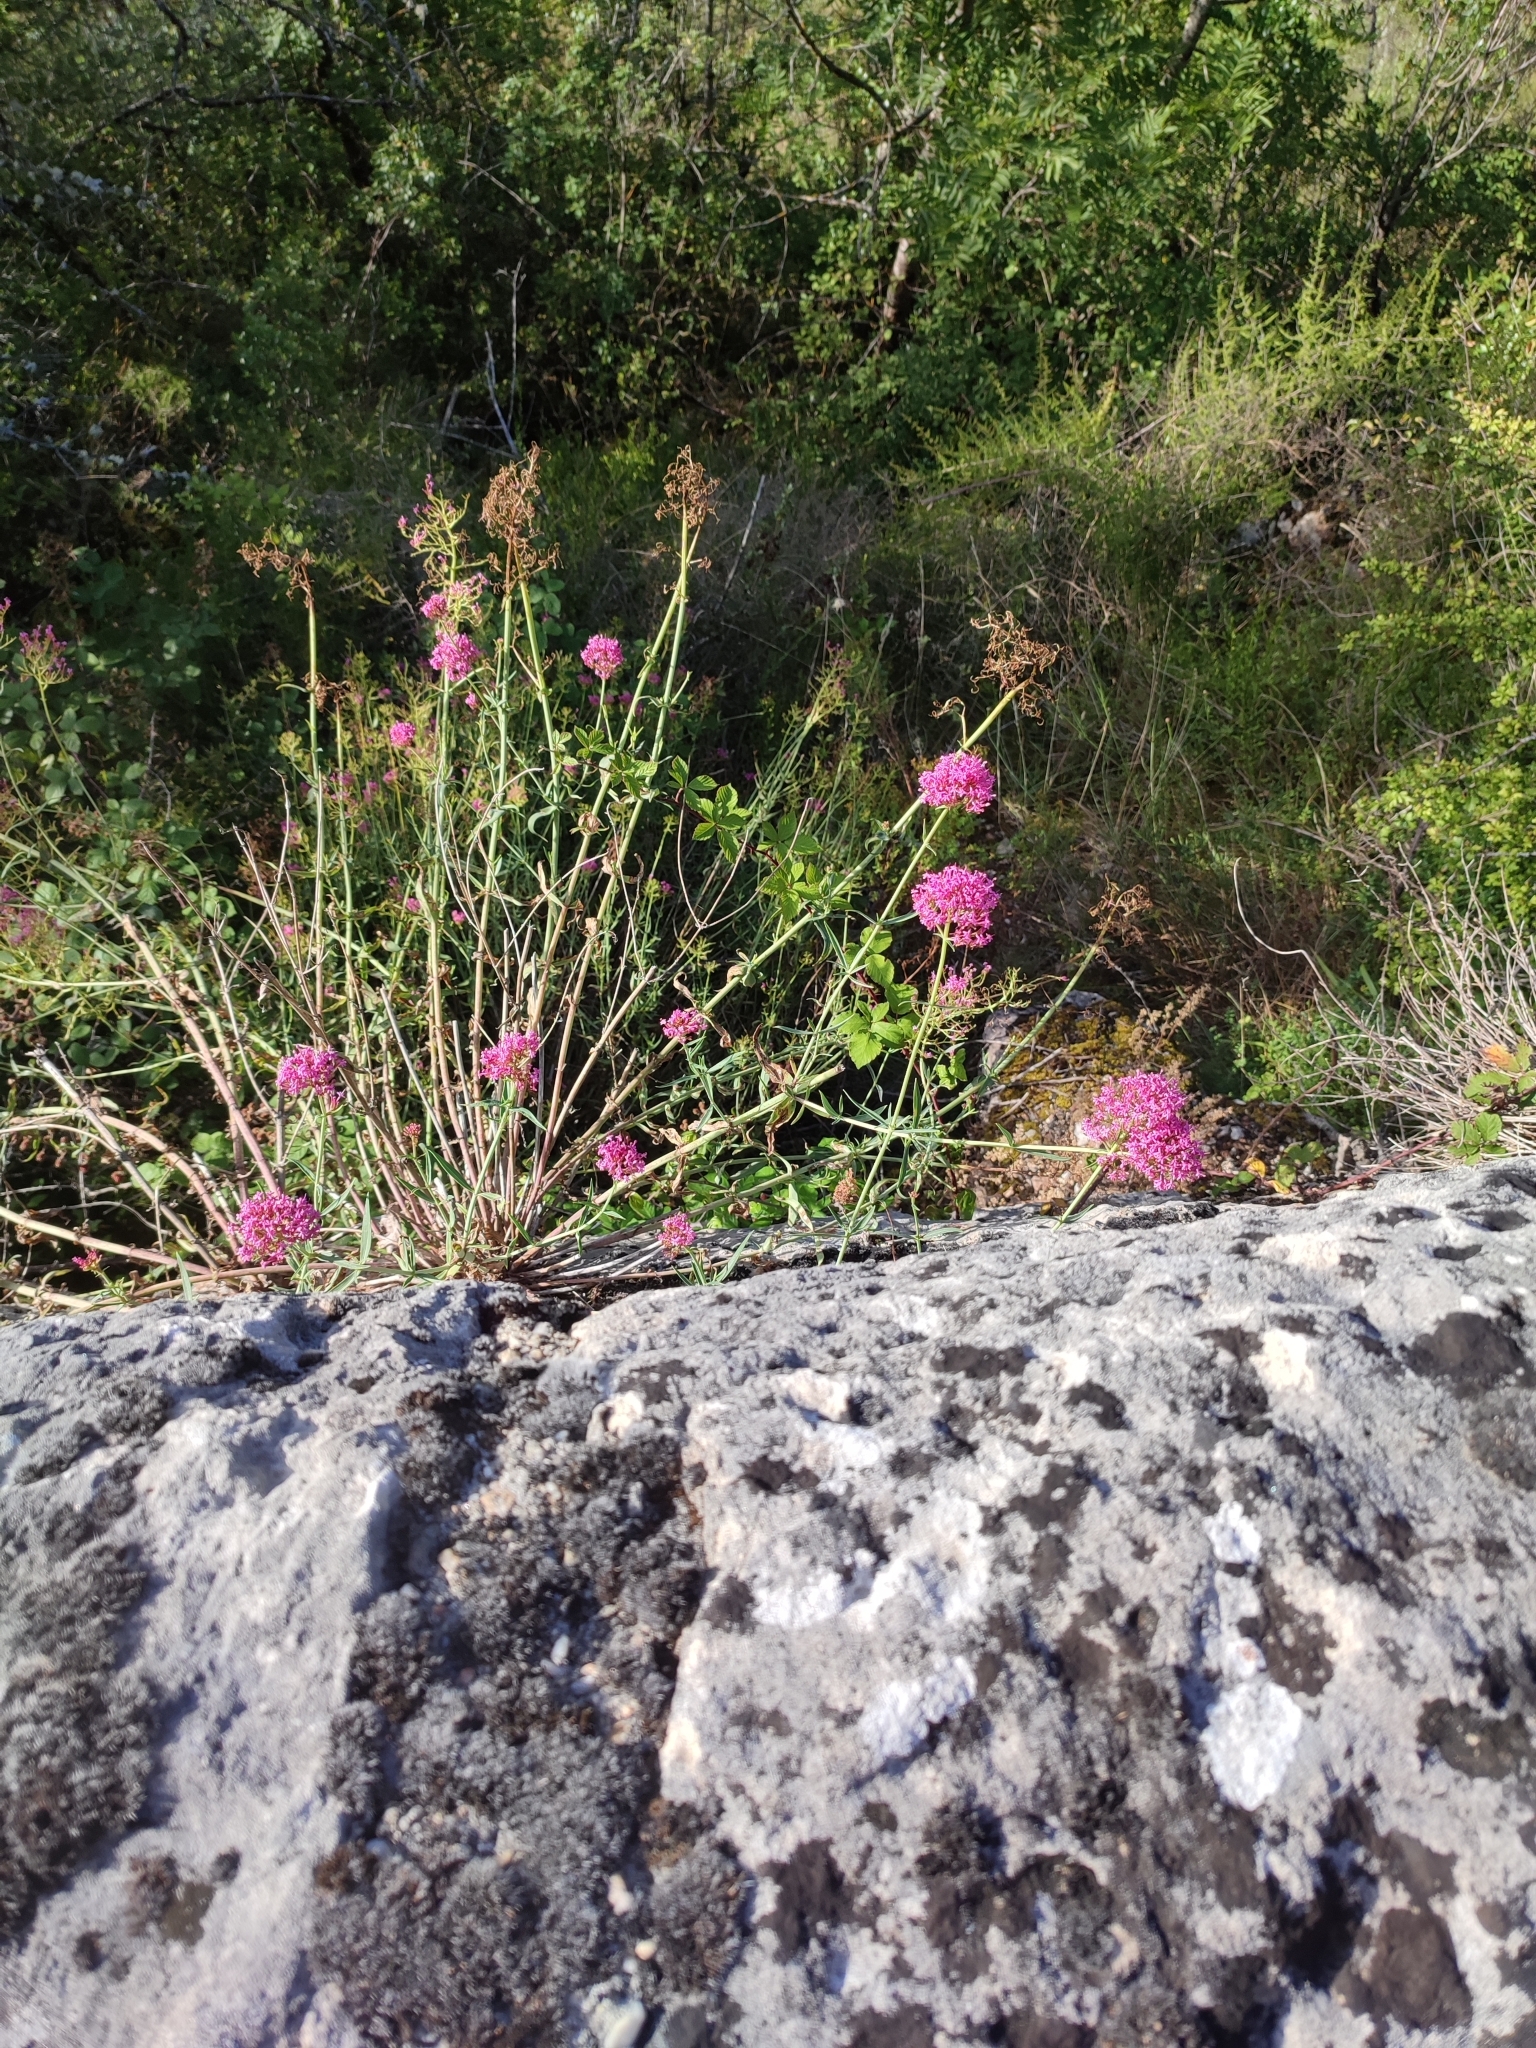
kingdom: Plantae
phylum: Tracheophyta
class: Magnoliopsida
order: Dipsacales
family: Caprifoliaceae
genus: Centranthus
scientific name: Centranthus ruber
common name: Red valerian
